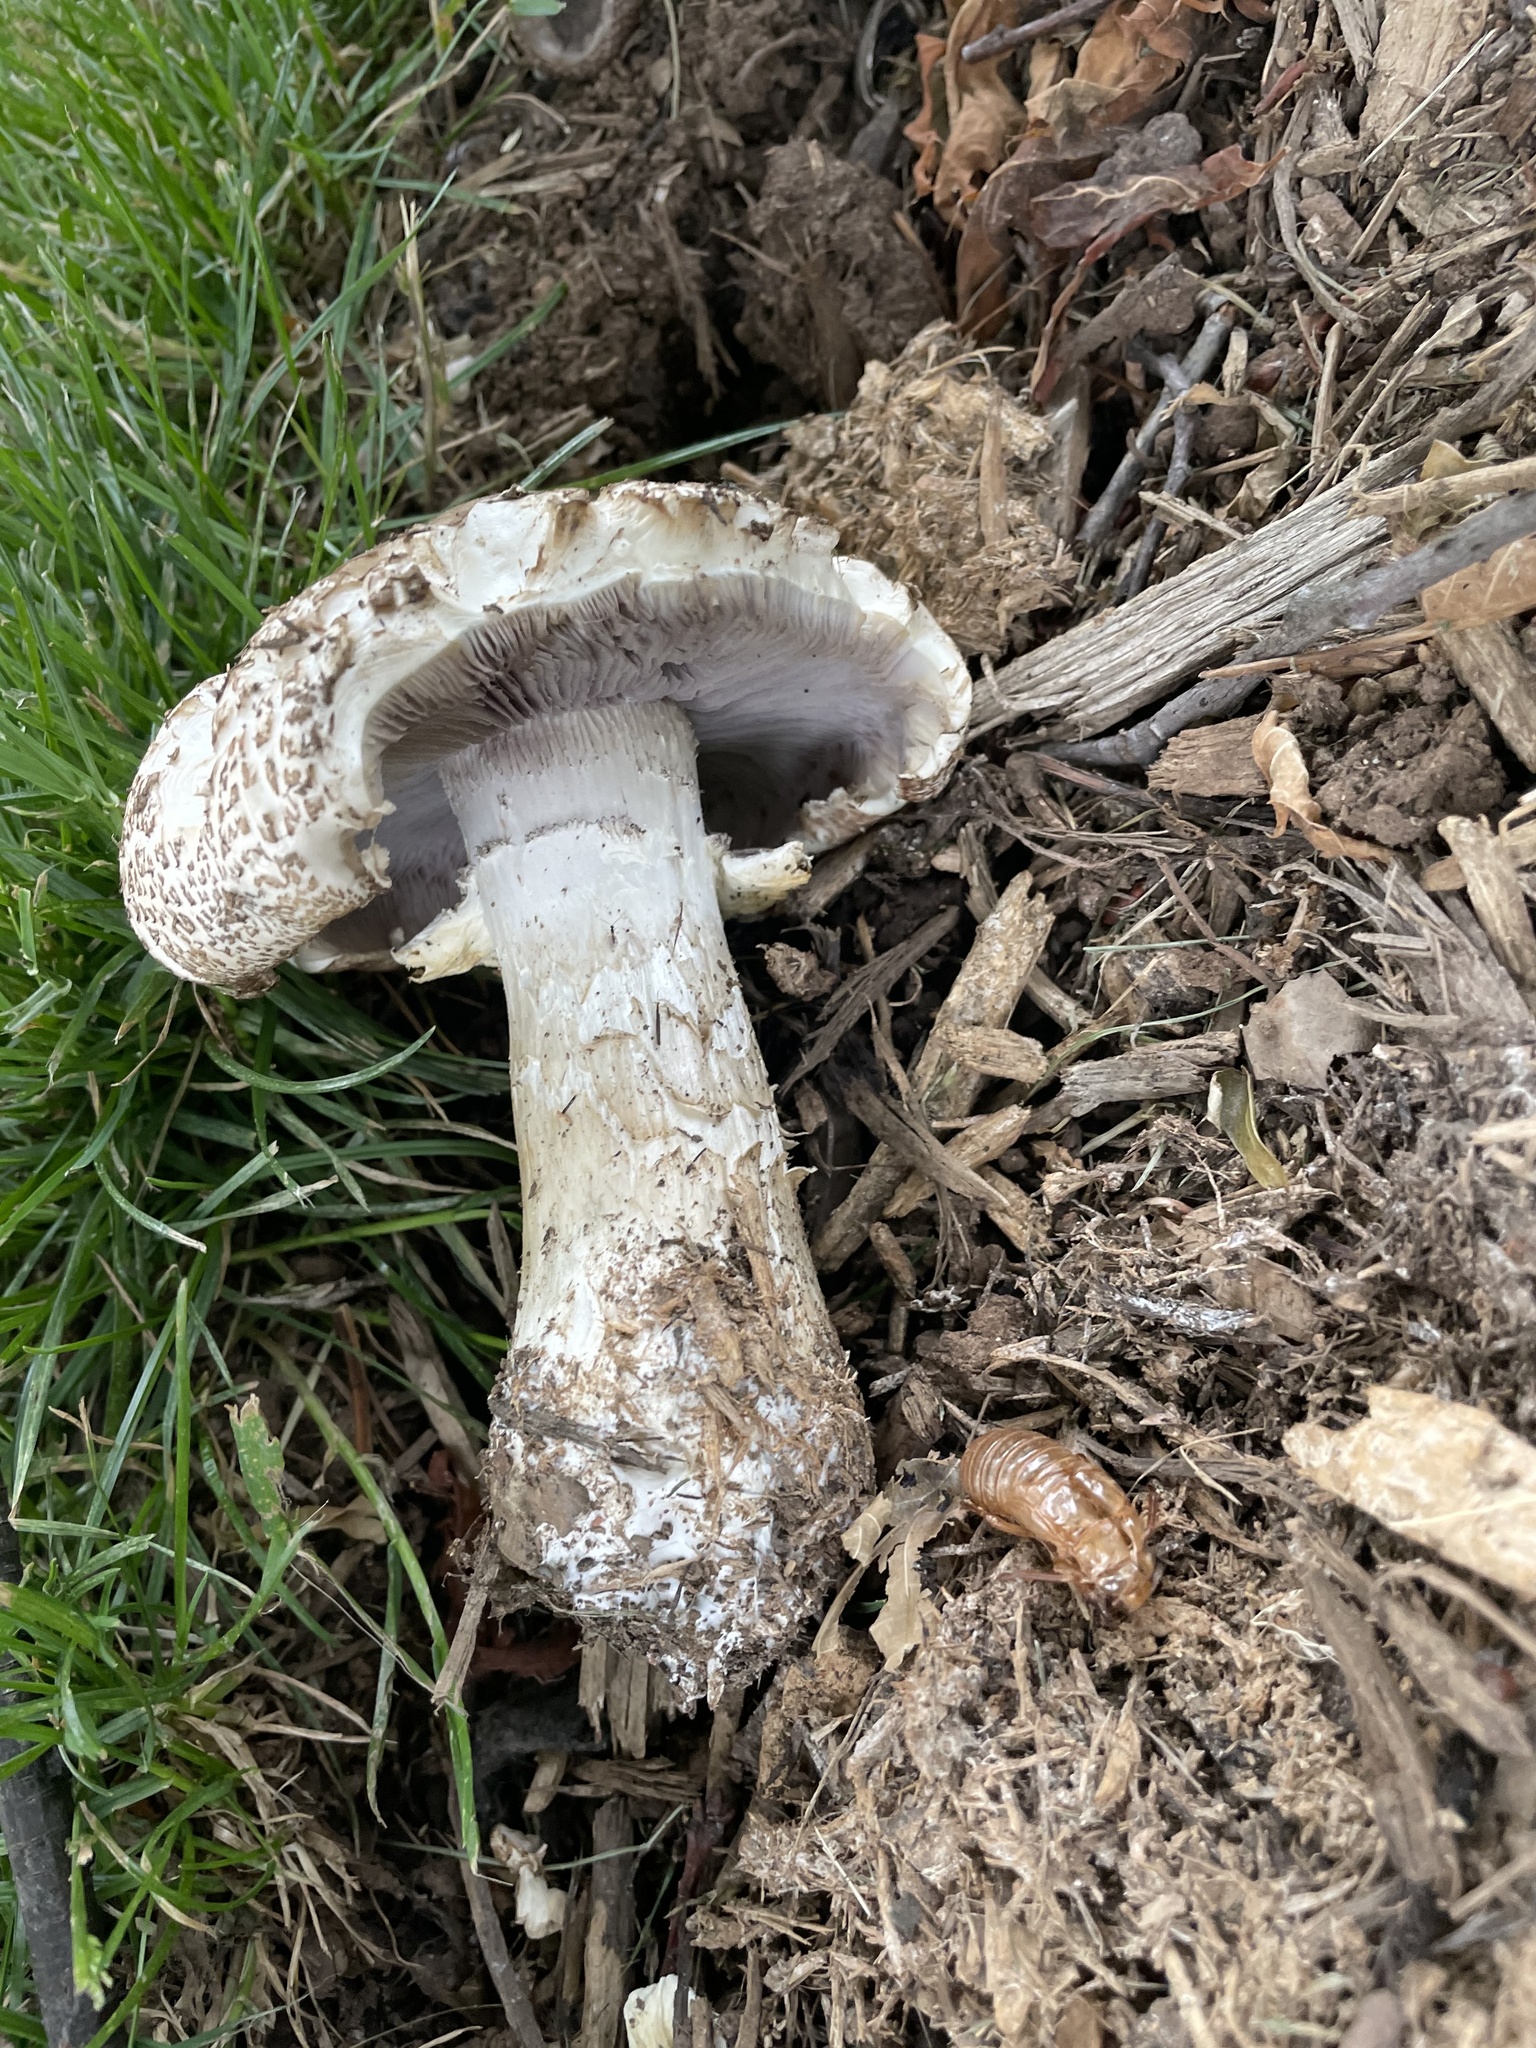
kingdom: Fungi
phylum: Basidiomycota
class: Agaricomycetes
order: Agaricales
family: Strophariaceae
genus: Stropharia
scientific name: Stropharia rugosoannulata
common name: Wine roundhead
